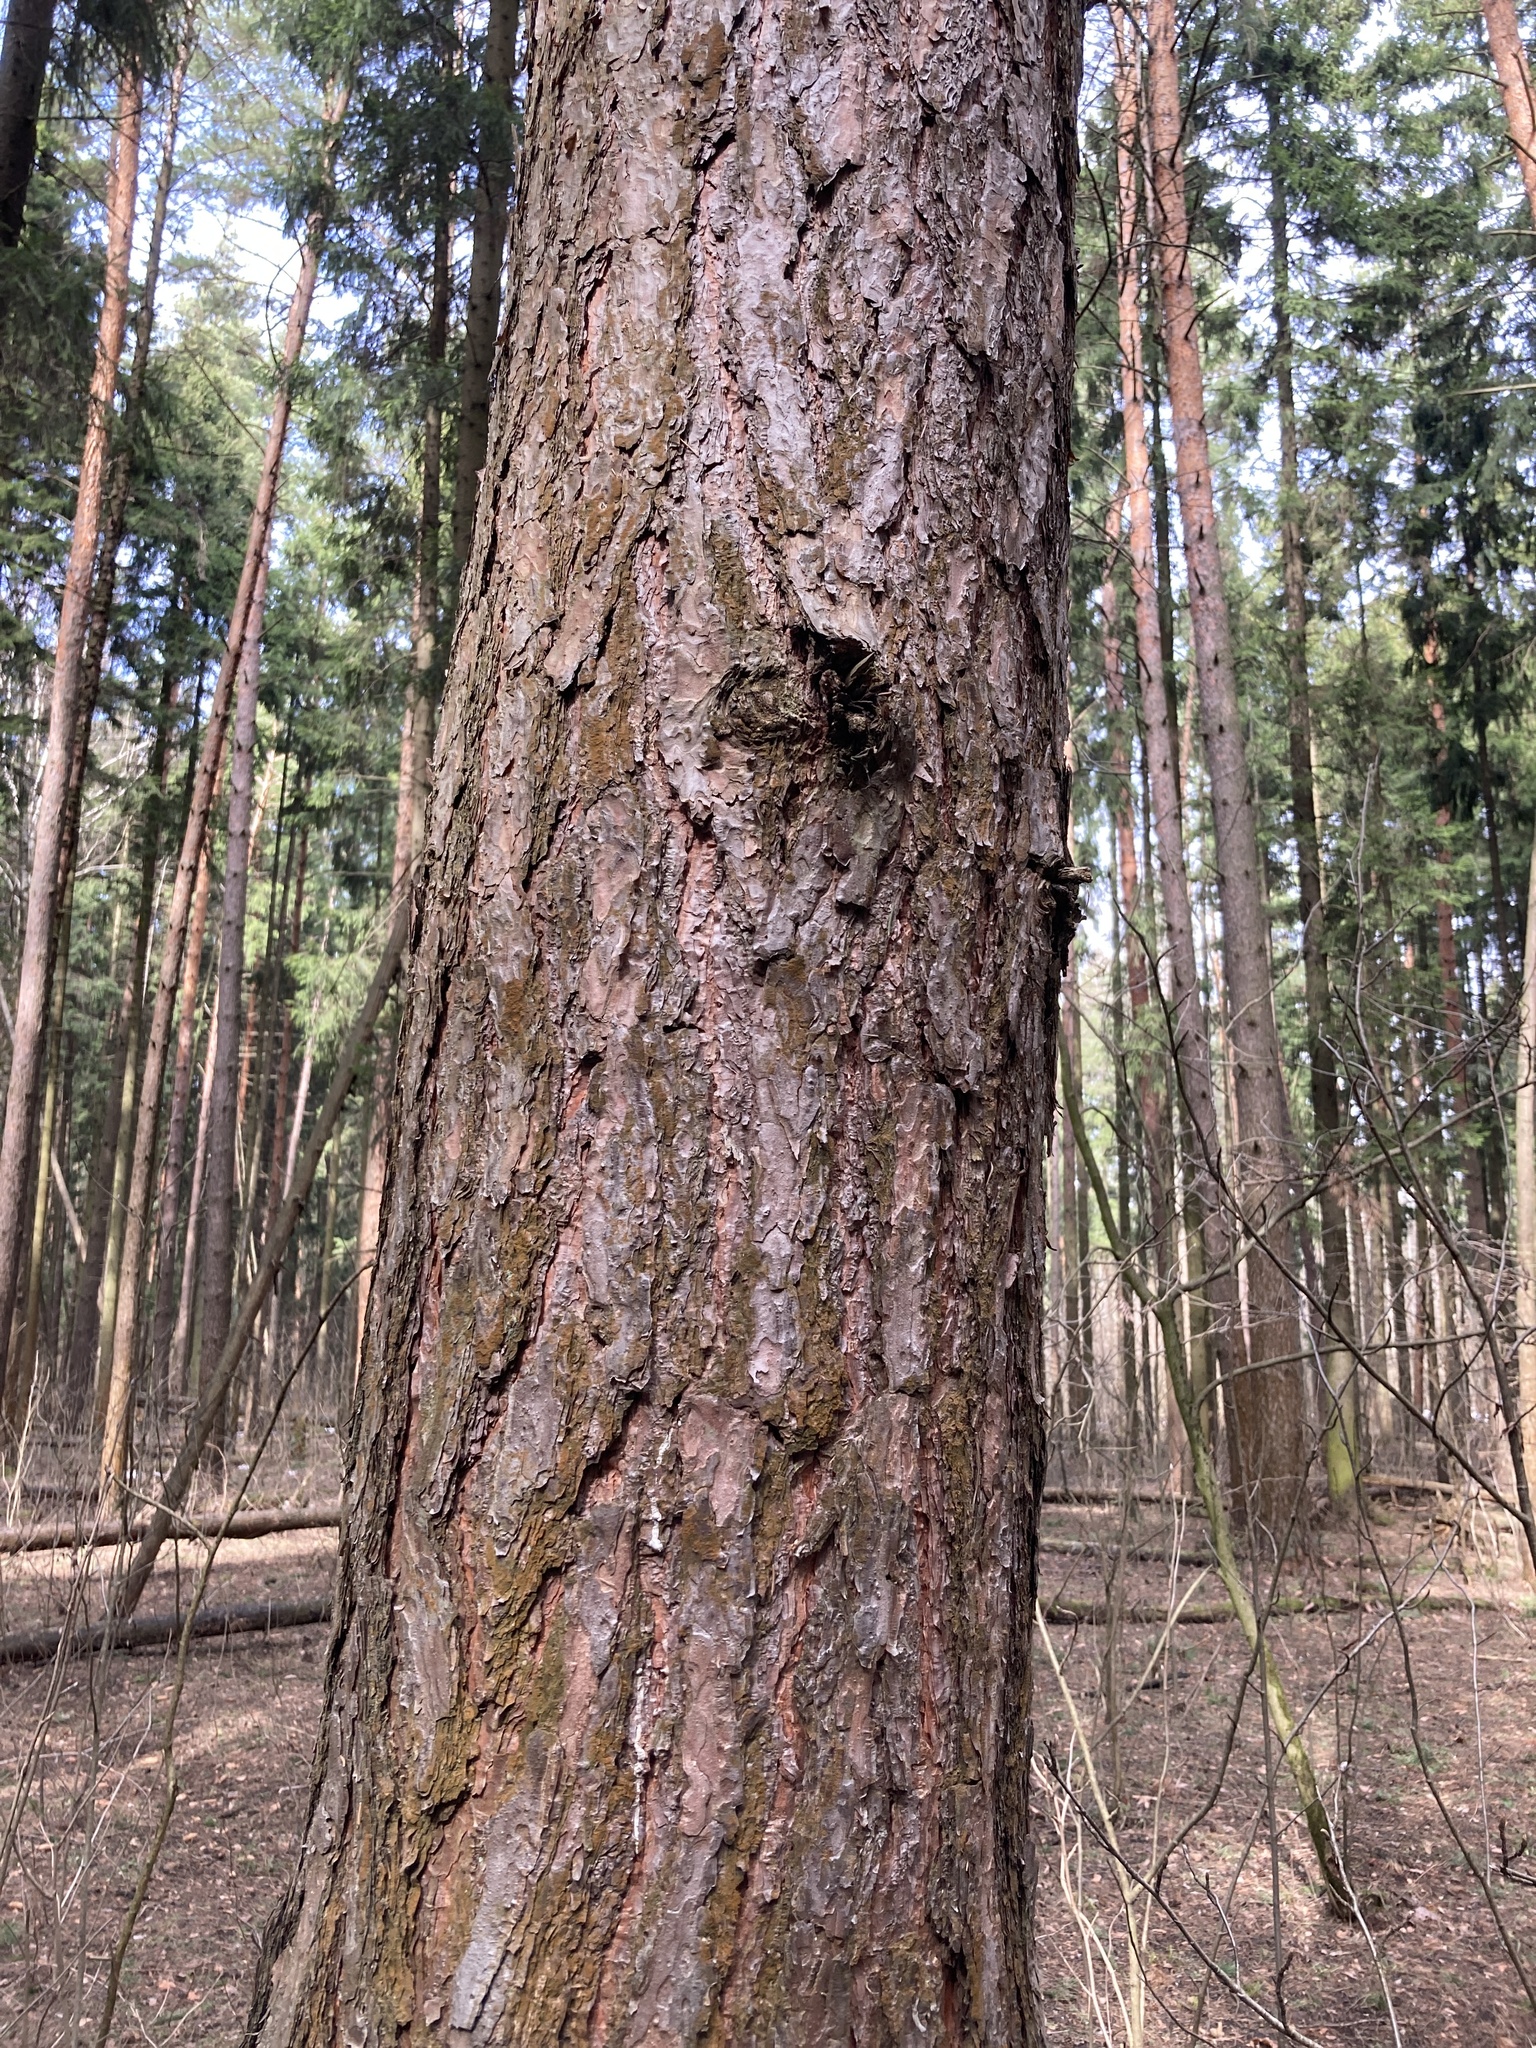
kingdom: Plantae
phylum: Tracheophyta
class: Pinopsida
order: Pinales
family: Pinaceae
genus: Pinus
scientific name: Pinus sylvestris
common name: Scots pine
